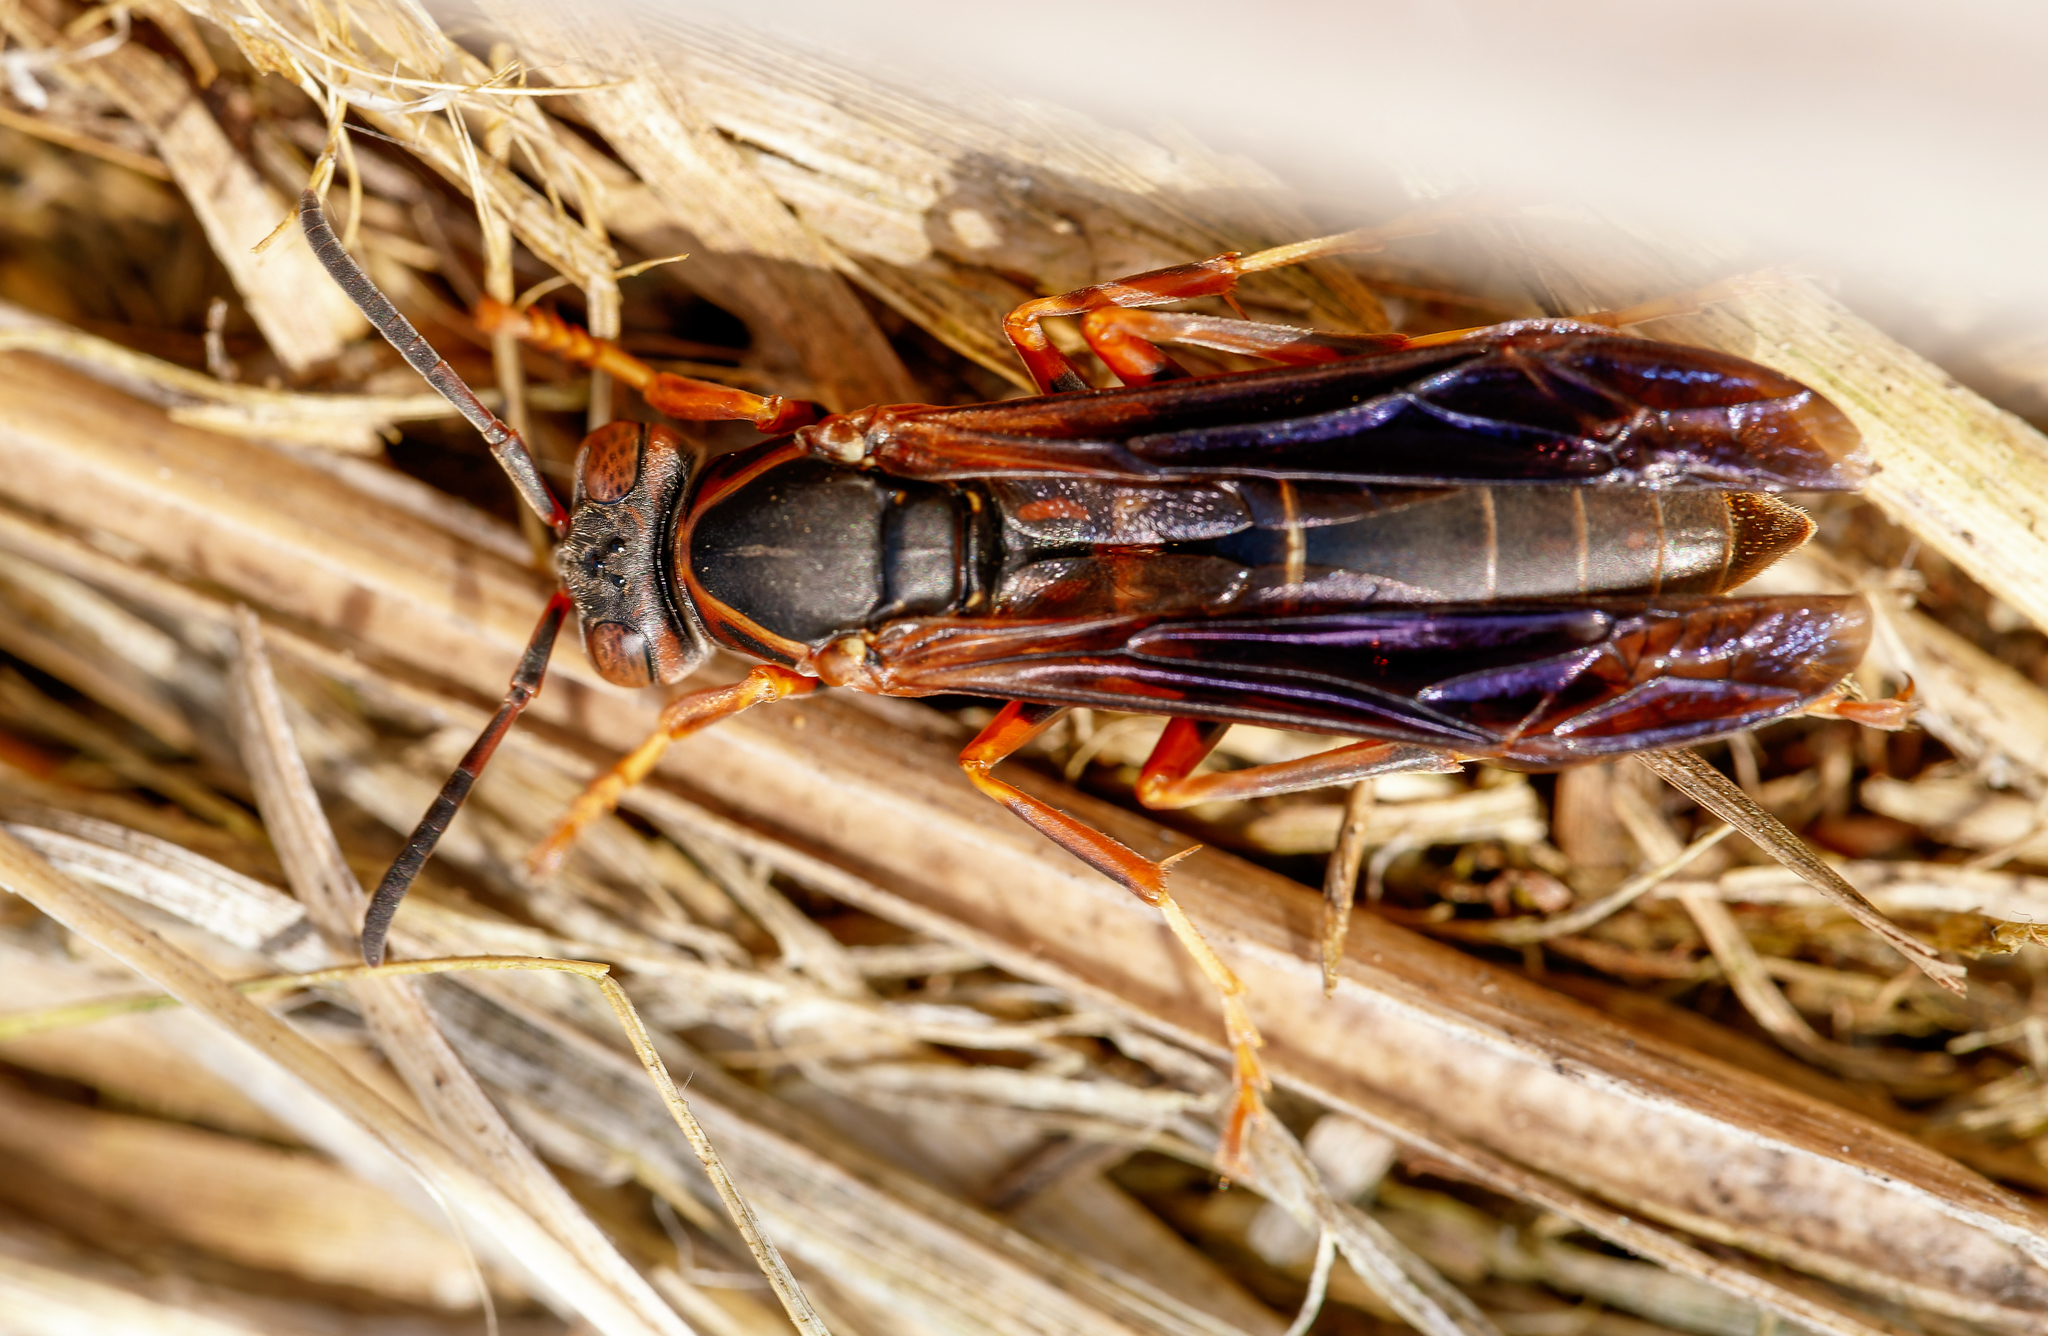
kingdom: Animalia
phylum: Arthropoda
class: Insecta
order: Hymenoptera
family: Eumenidae
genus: Polistes
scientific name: Polistes fuscatus
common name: Dark paper wasp
